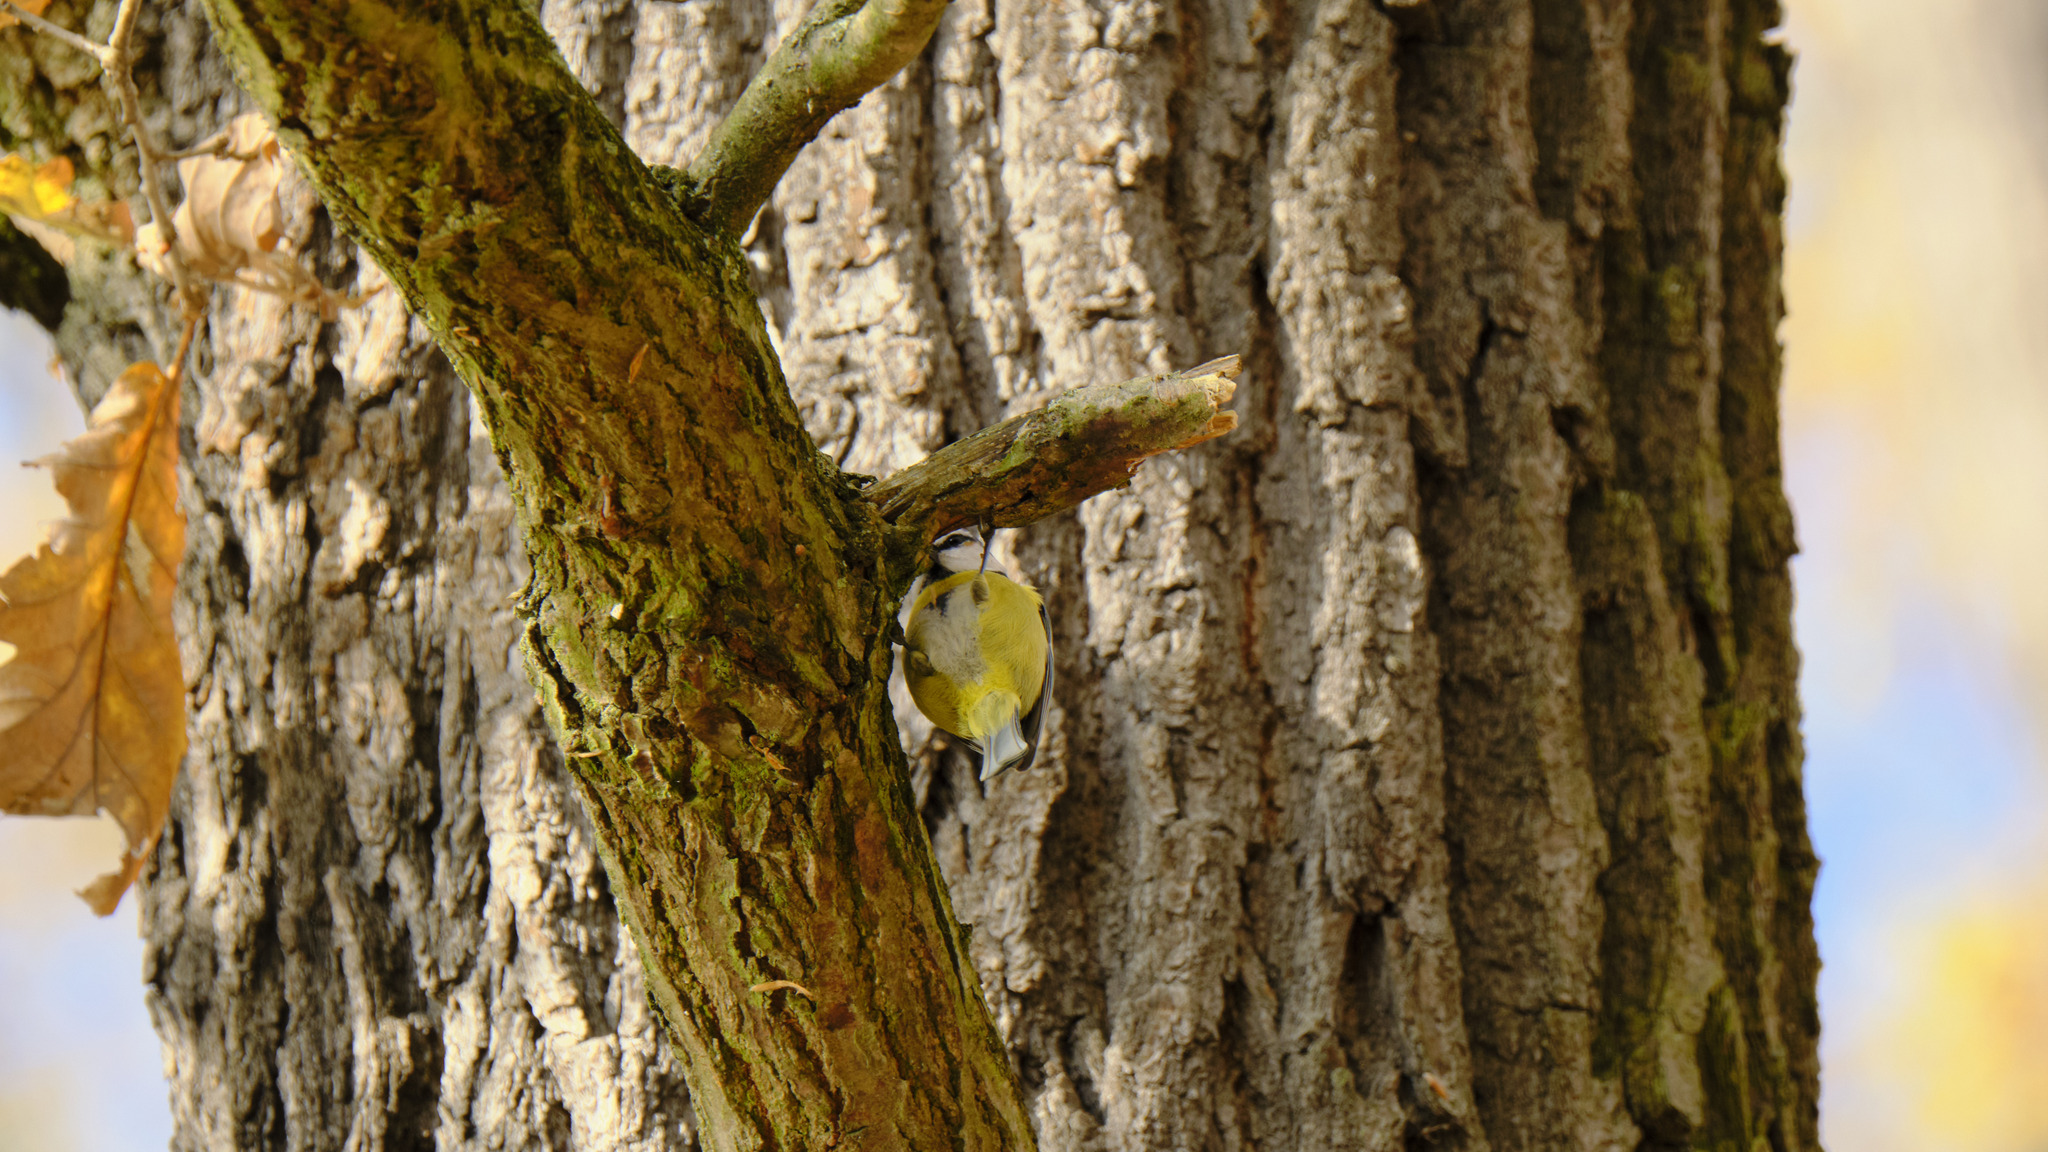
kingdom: Animalia
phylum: Chordata
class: Aves
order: Passeriformes
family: Paridae
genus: Cyanistes
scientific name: Cyanistes caeruleus
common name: Eurasian blue tit
